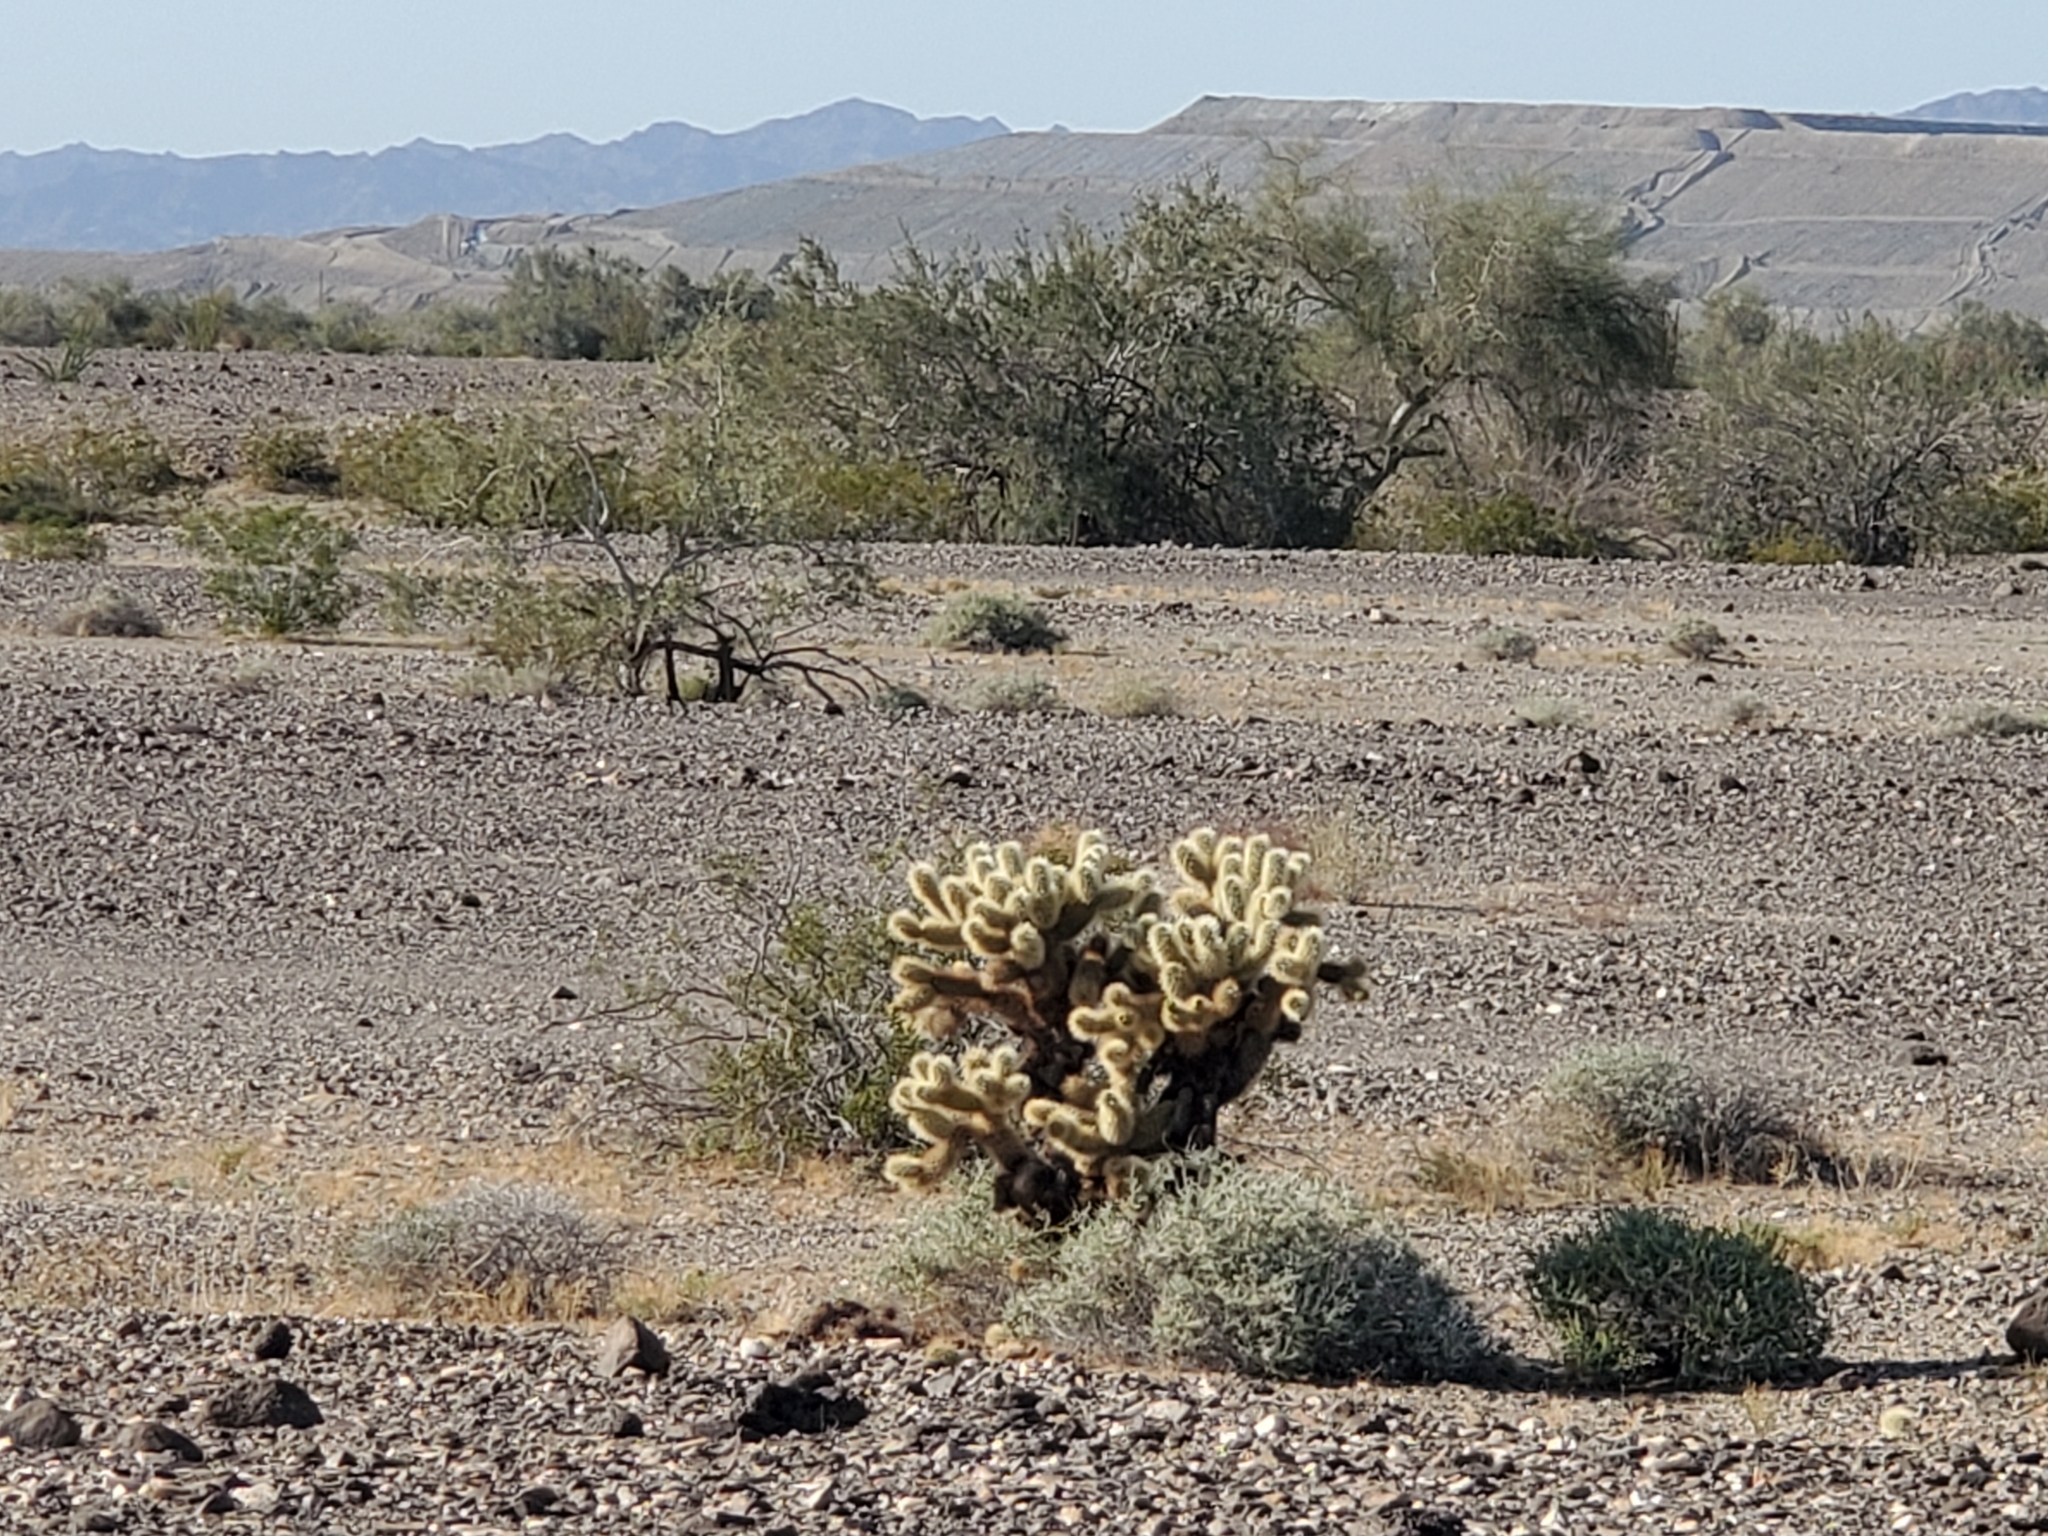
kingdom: Plantae
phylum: Tracheophyta
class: Magnoliopsida
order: Caryophyllales
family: Cactaceae
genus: Cylindropuntia
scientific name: Cylindropuntia fosbergii
